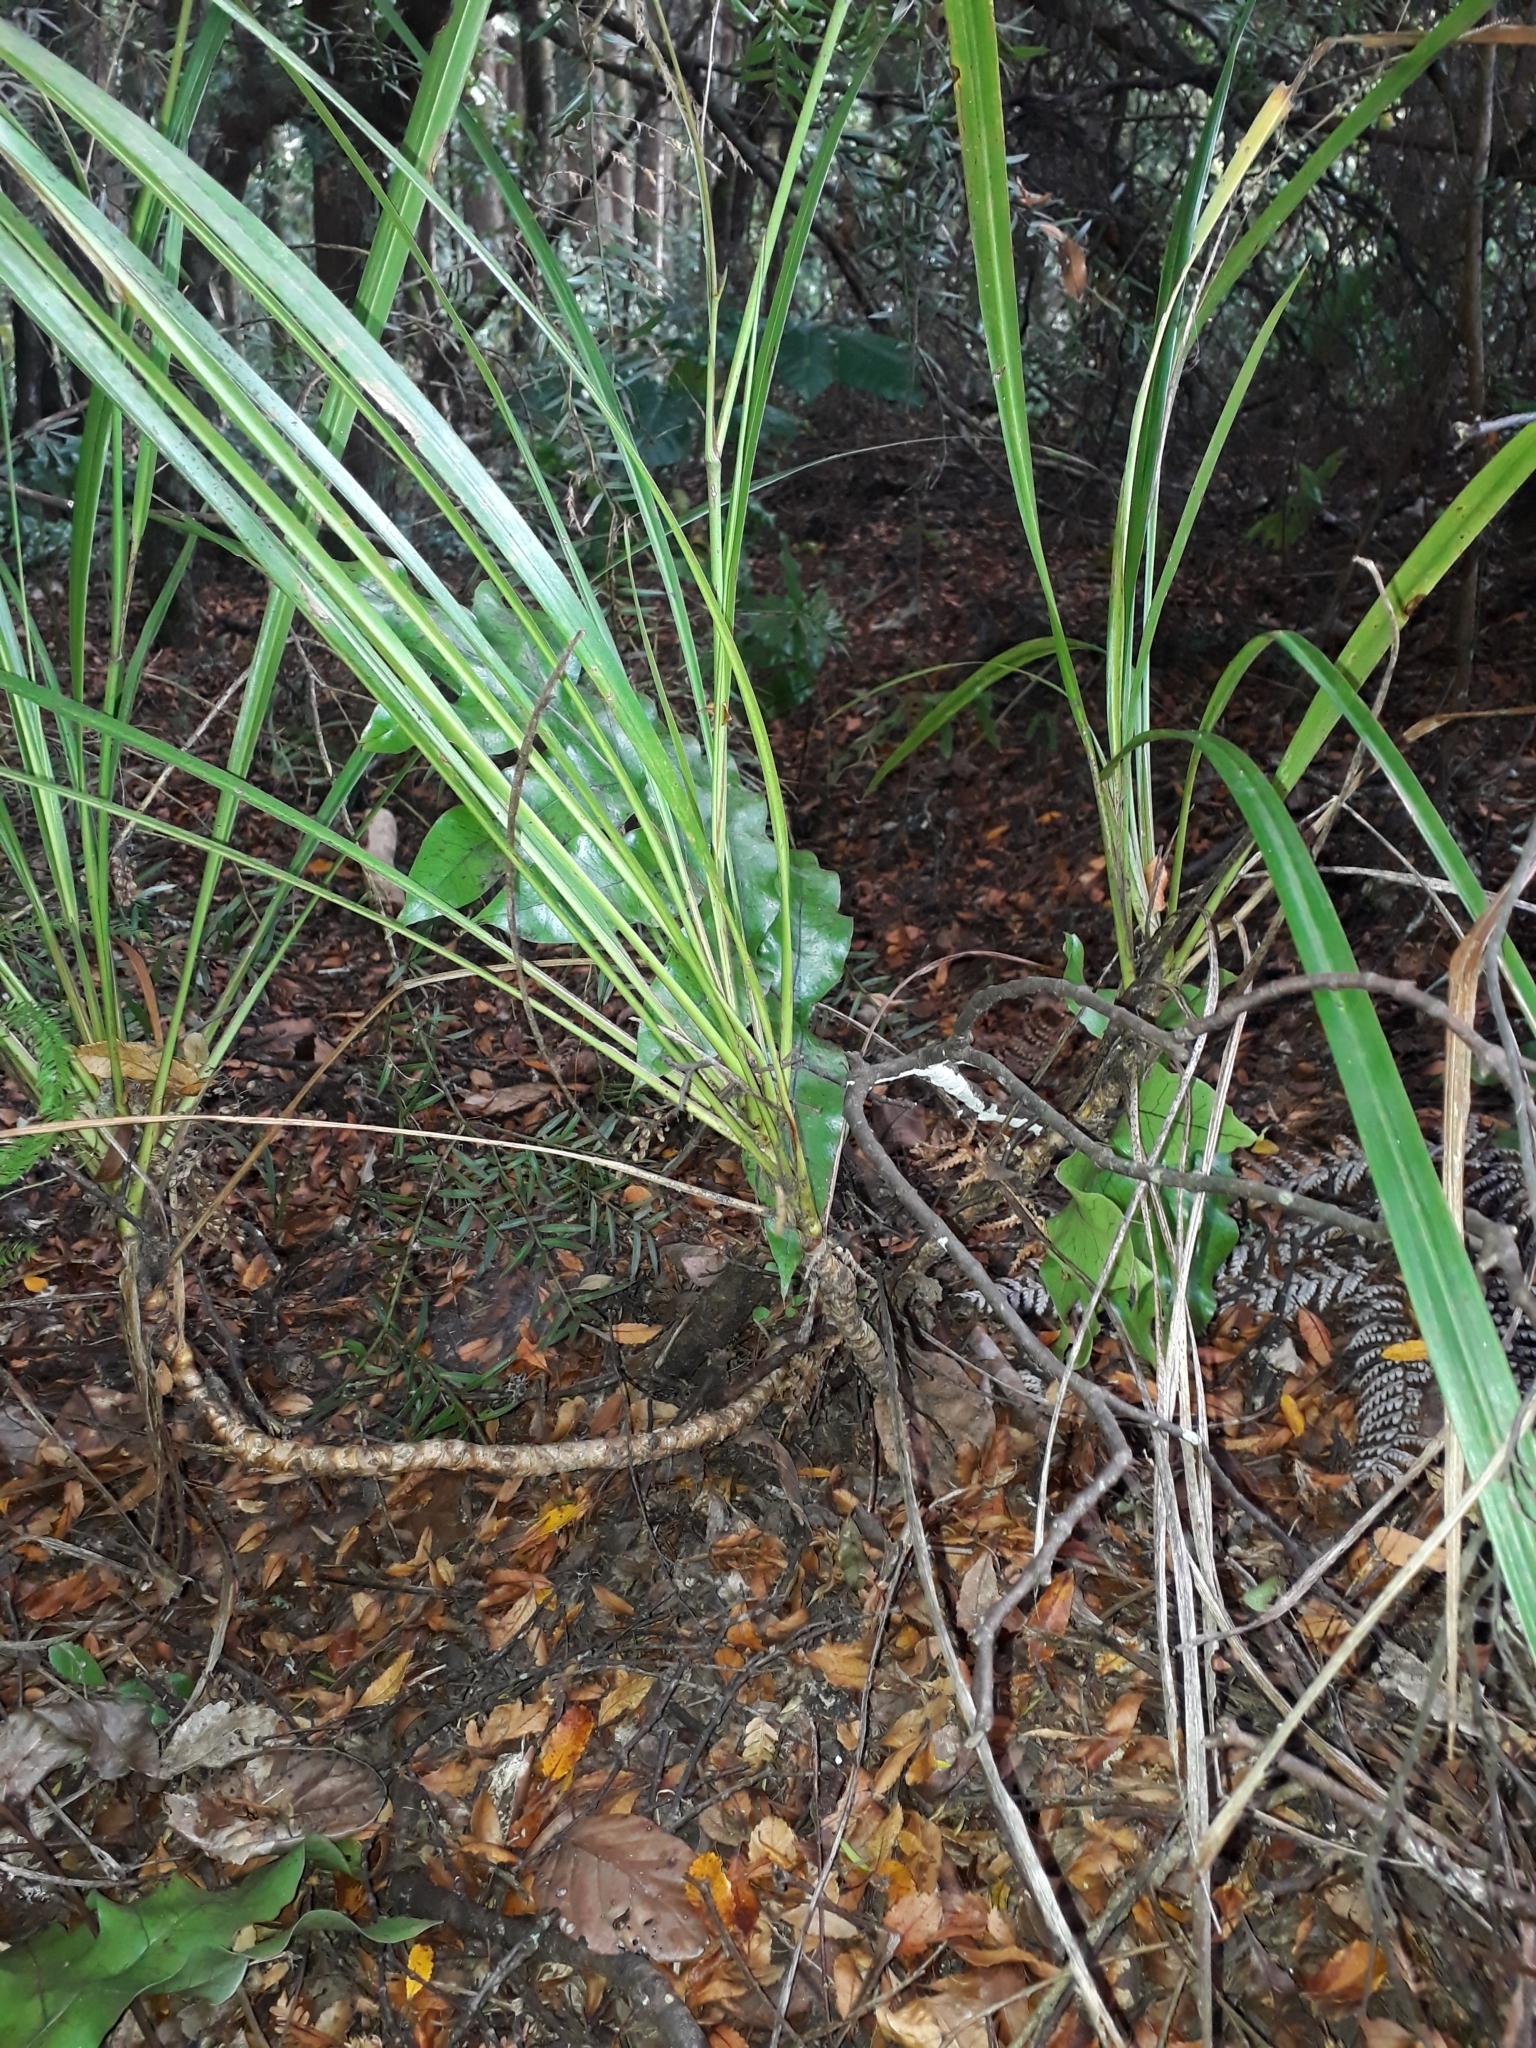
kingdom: Plantae
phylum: Tracheophyta
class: Liliopsida
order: Asparagales
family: Asparagaceae
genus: Cordyline
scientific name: Cordyline pumilio
